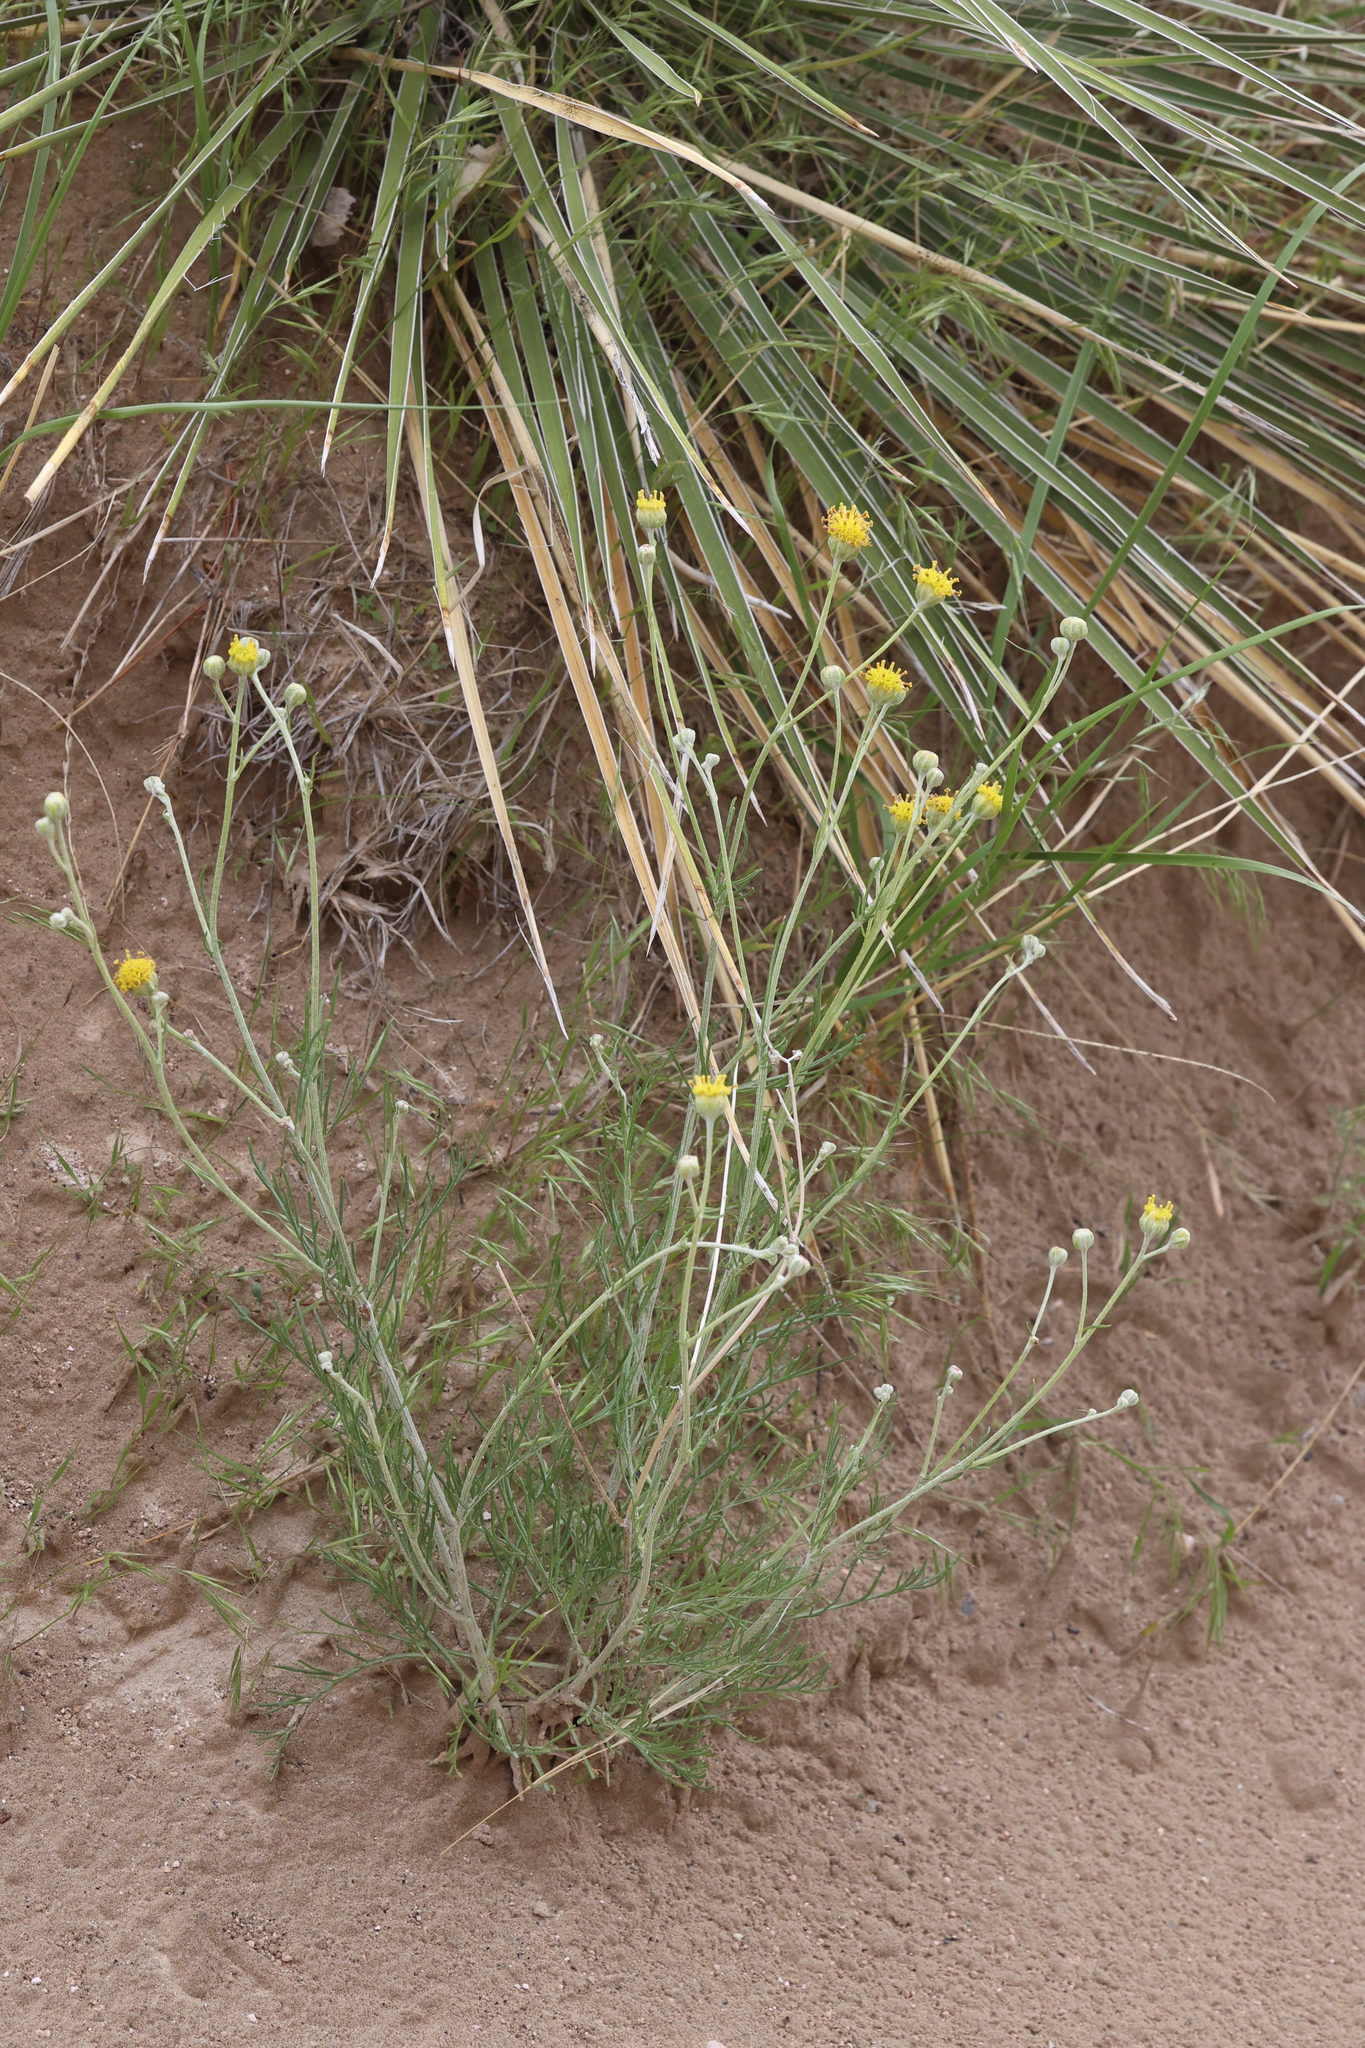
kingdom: Plantae
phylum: Tracheophyta
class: Magnoliopsida
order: Asterales
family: Asteraceae
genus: Hymenopappus
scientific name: Hymenopappus filifolius
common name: Columbia cutleaf
